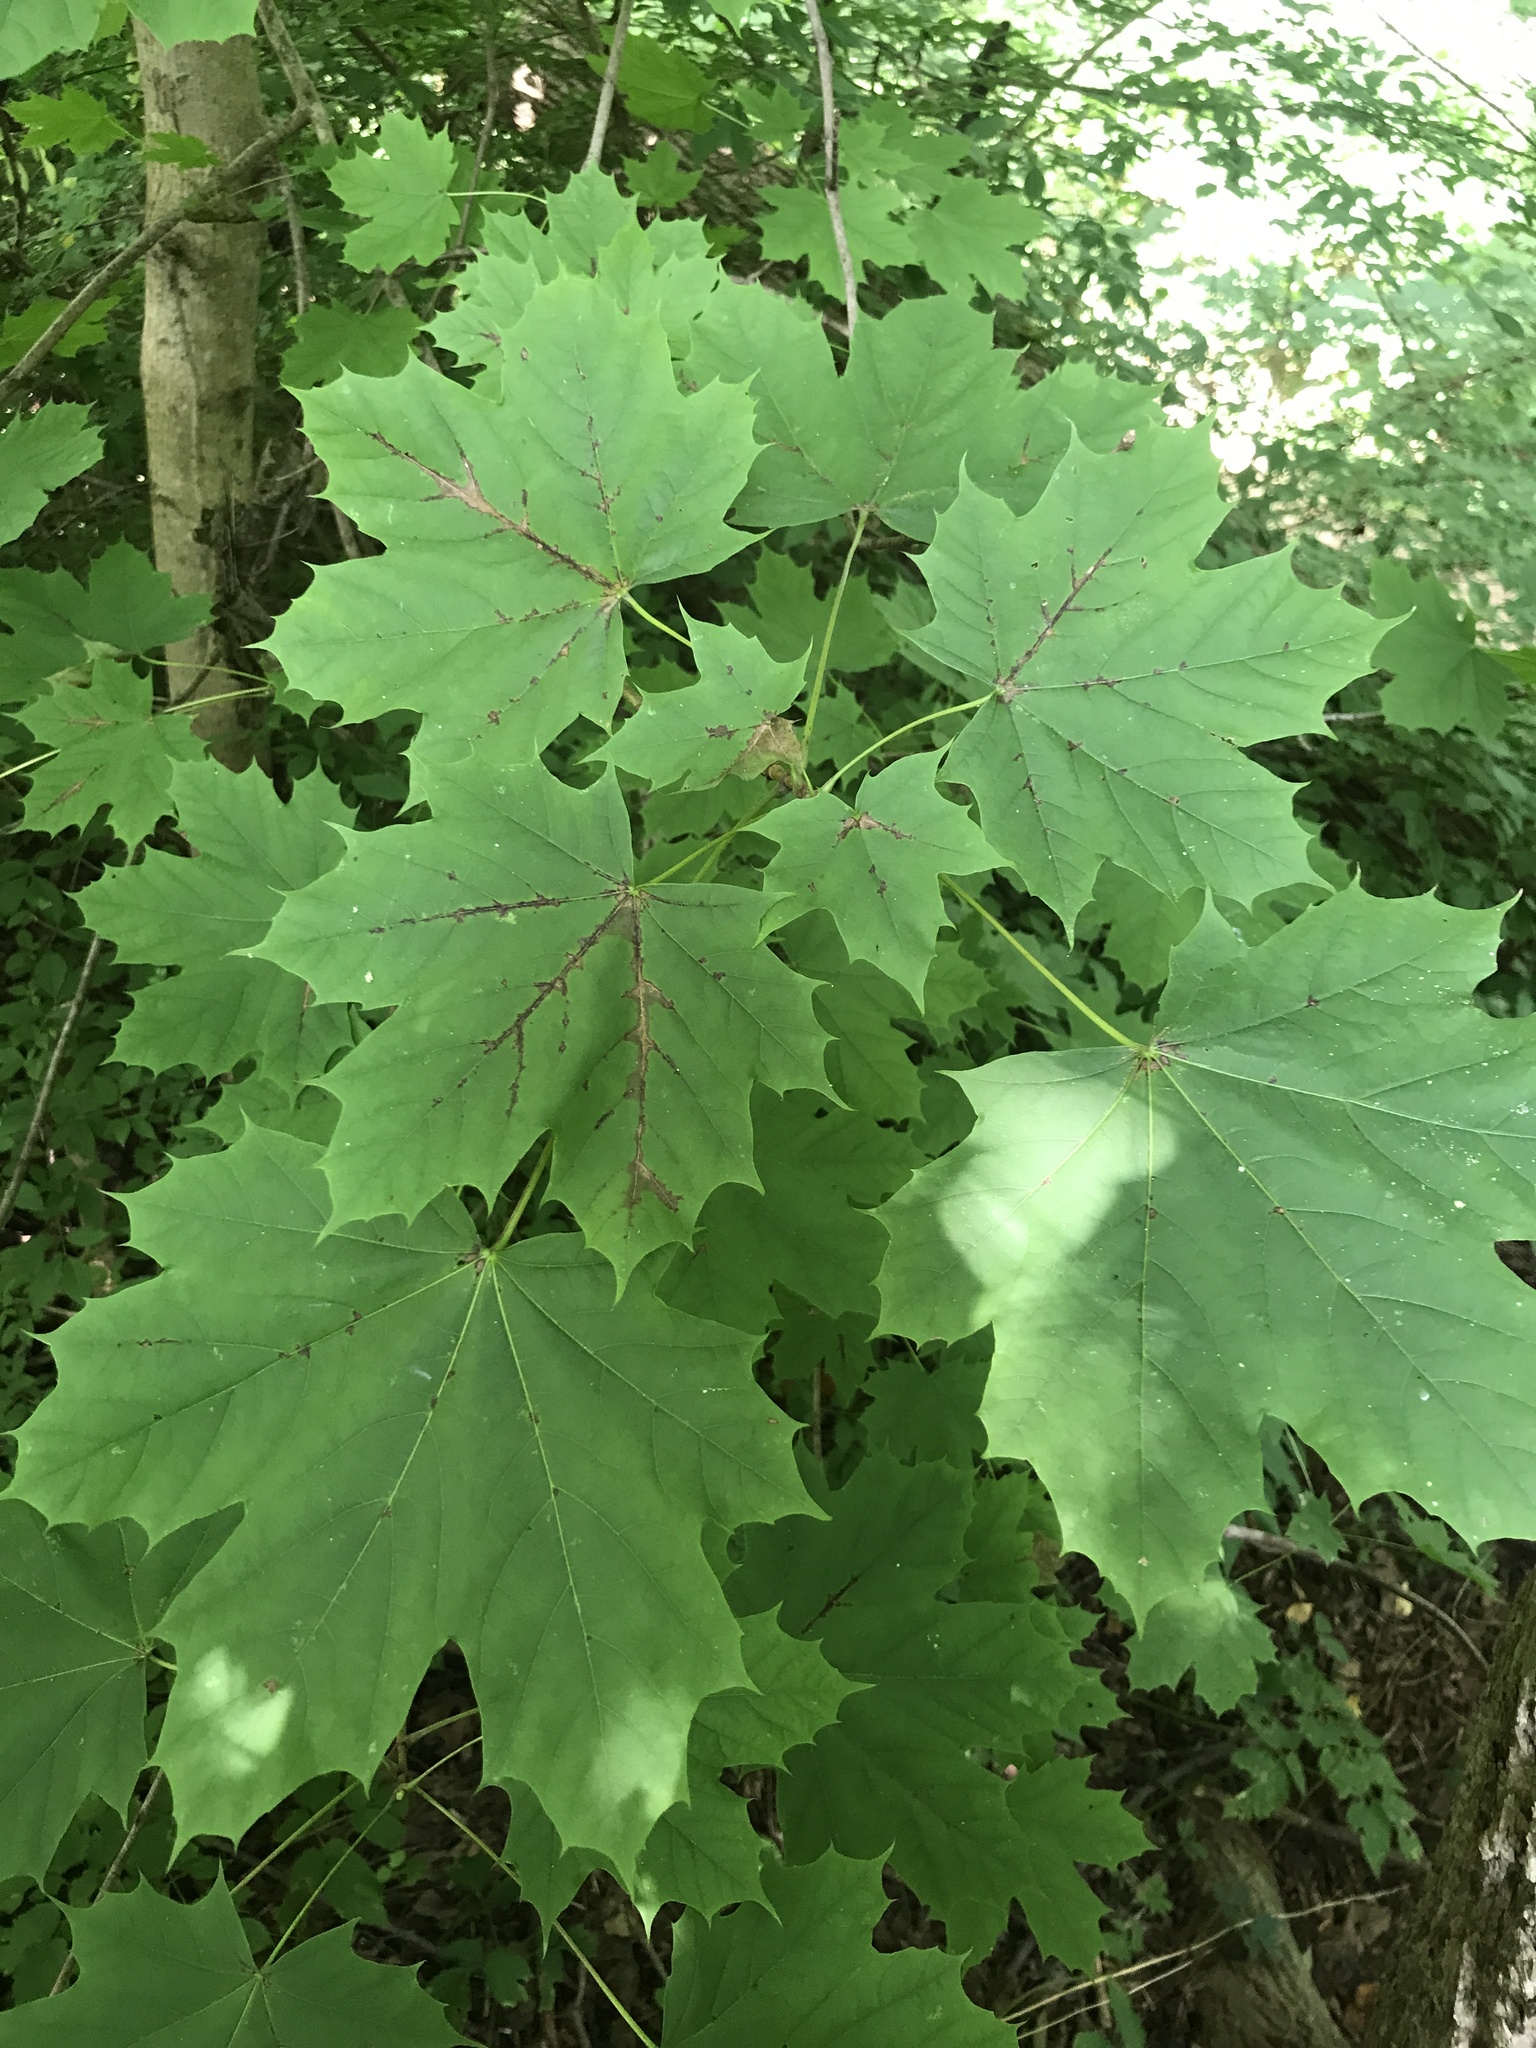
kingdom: Plantae
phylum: Tracheophyta
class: Magnoliopsida
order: Sapindales
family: Sapindaceae
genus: Acer
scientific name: Acer platanoides
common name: Norway maple
